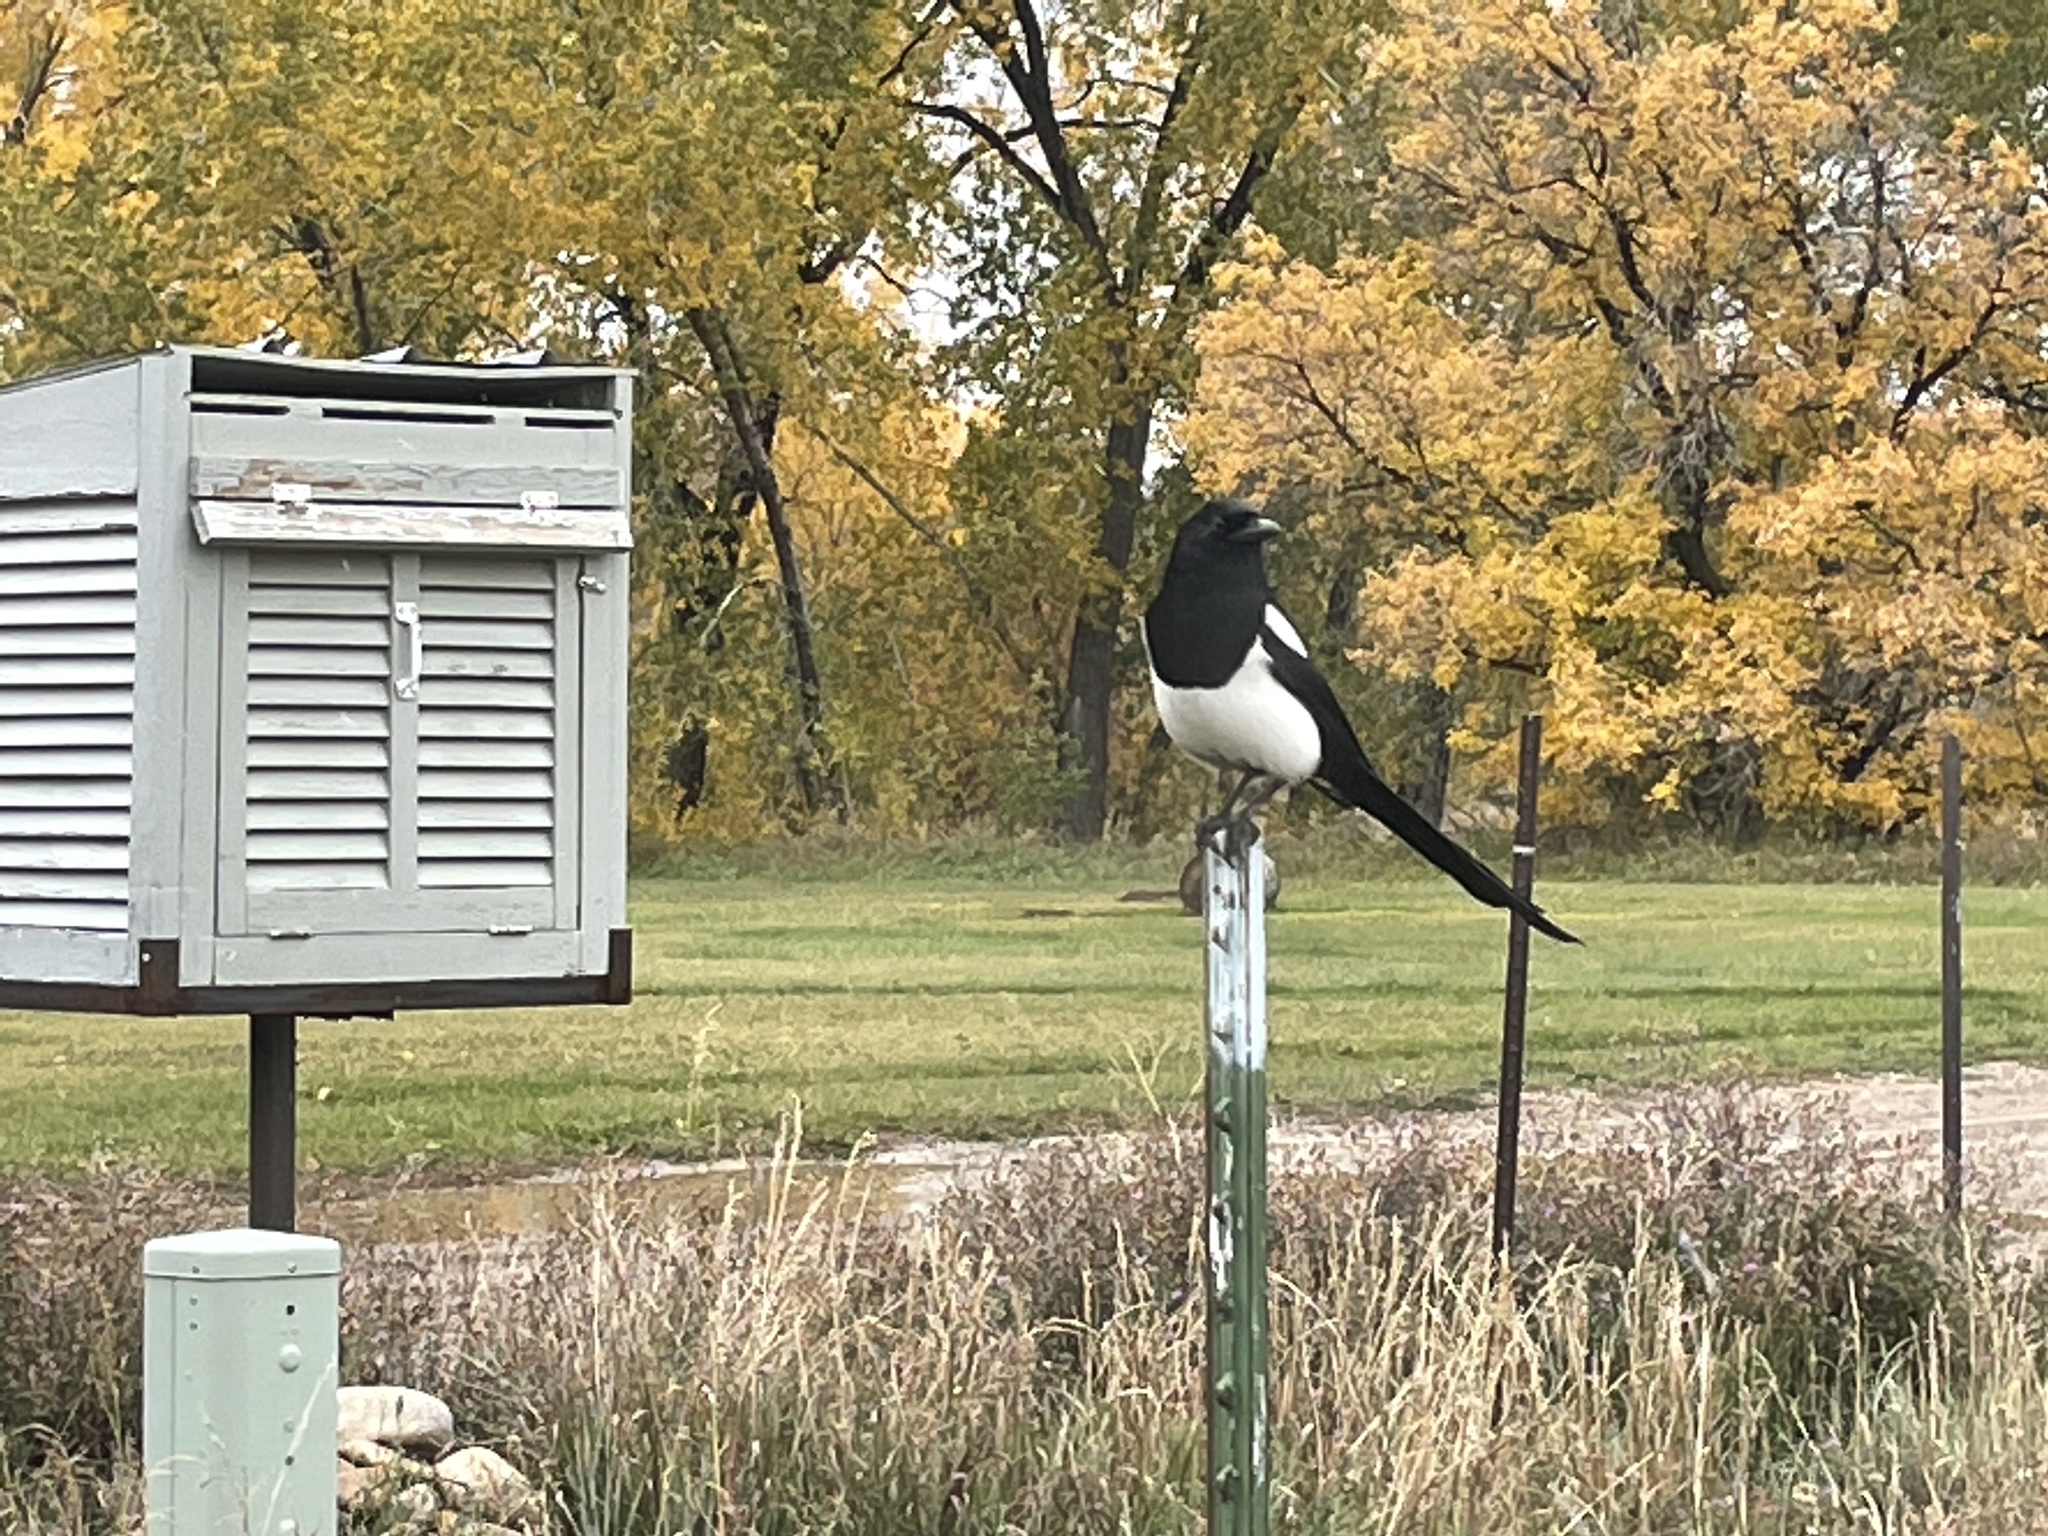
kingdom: Animalia
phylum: Chordata
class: Aves
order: Passeriformes
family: Corvidae
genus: Pica
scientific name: Pica hudsonia
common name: Black-billed magpie
